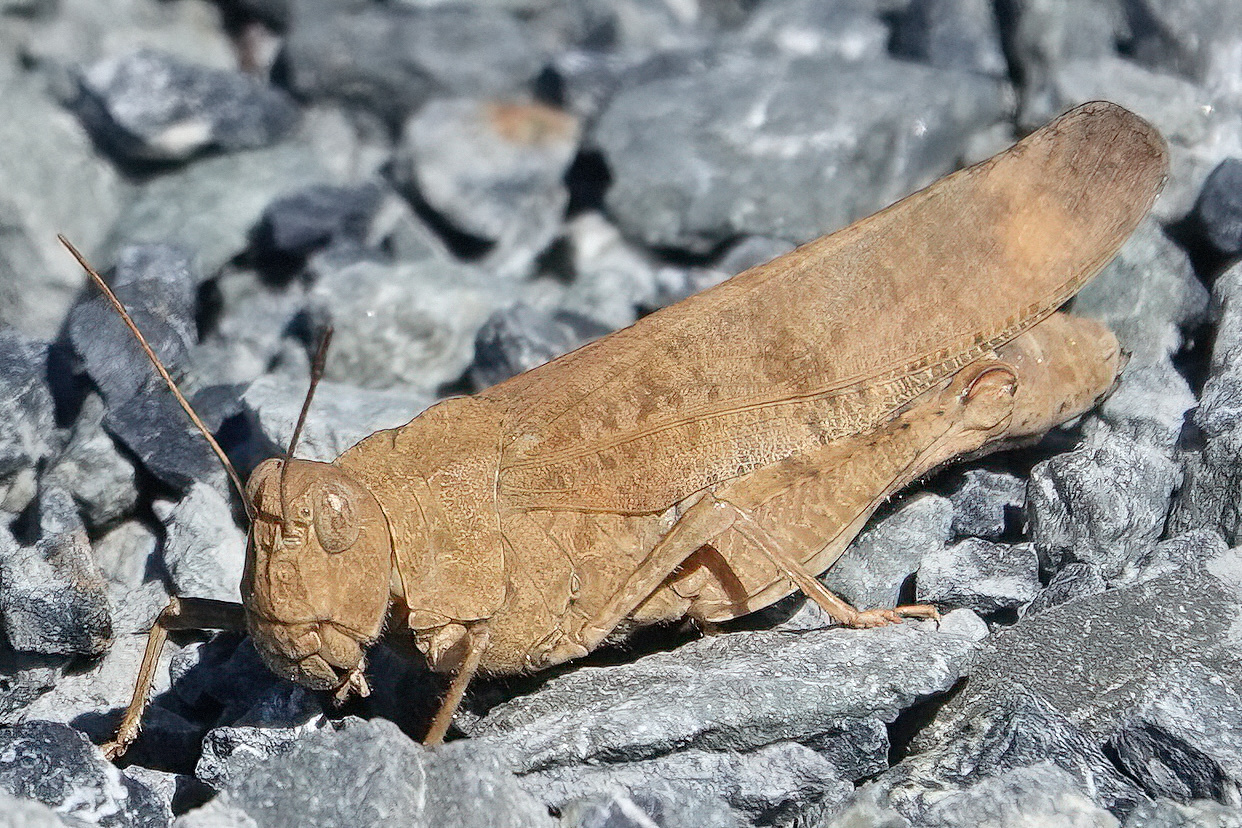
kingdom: Animalia
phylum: Arthropoda
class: Insecta
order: Orthoptera
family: Acrididae
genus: Dissosteira
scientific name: Dissosteira carolina
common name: Carolina grasshopper
